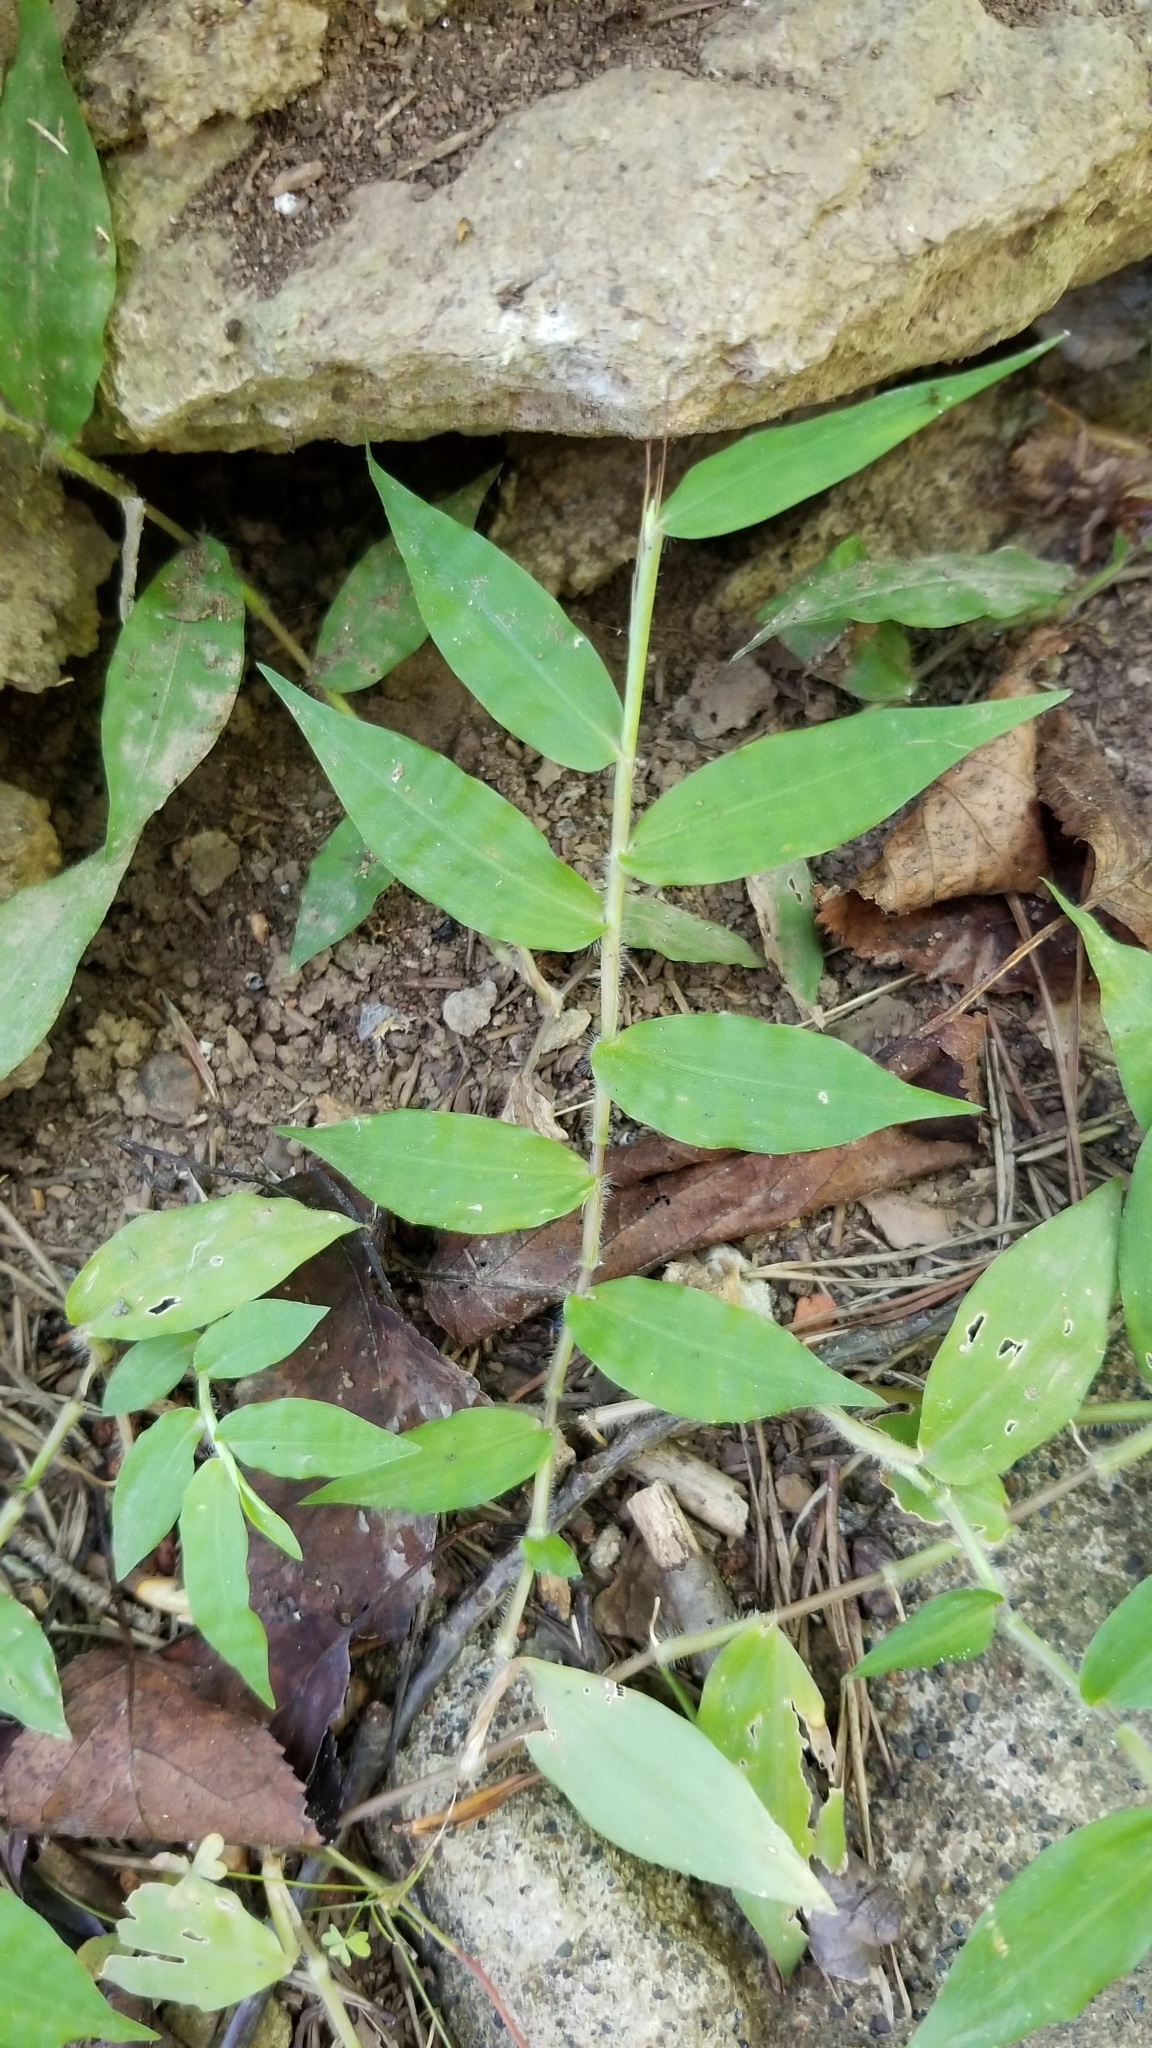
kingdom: Plantae
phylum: Tracheophyta
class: Liliopsida
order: Poales
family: Poaceae
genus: Oplismenus
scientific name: Oplismenus undulatifolius
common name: Wavyleaf basketgrass
